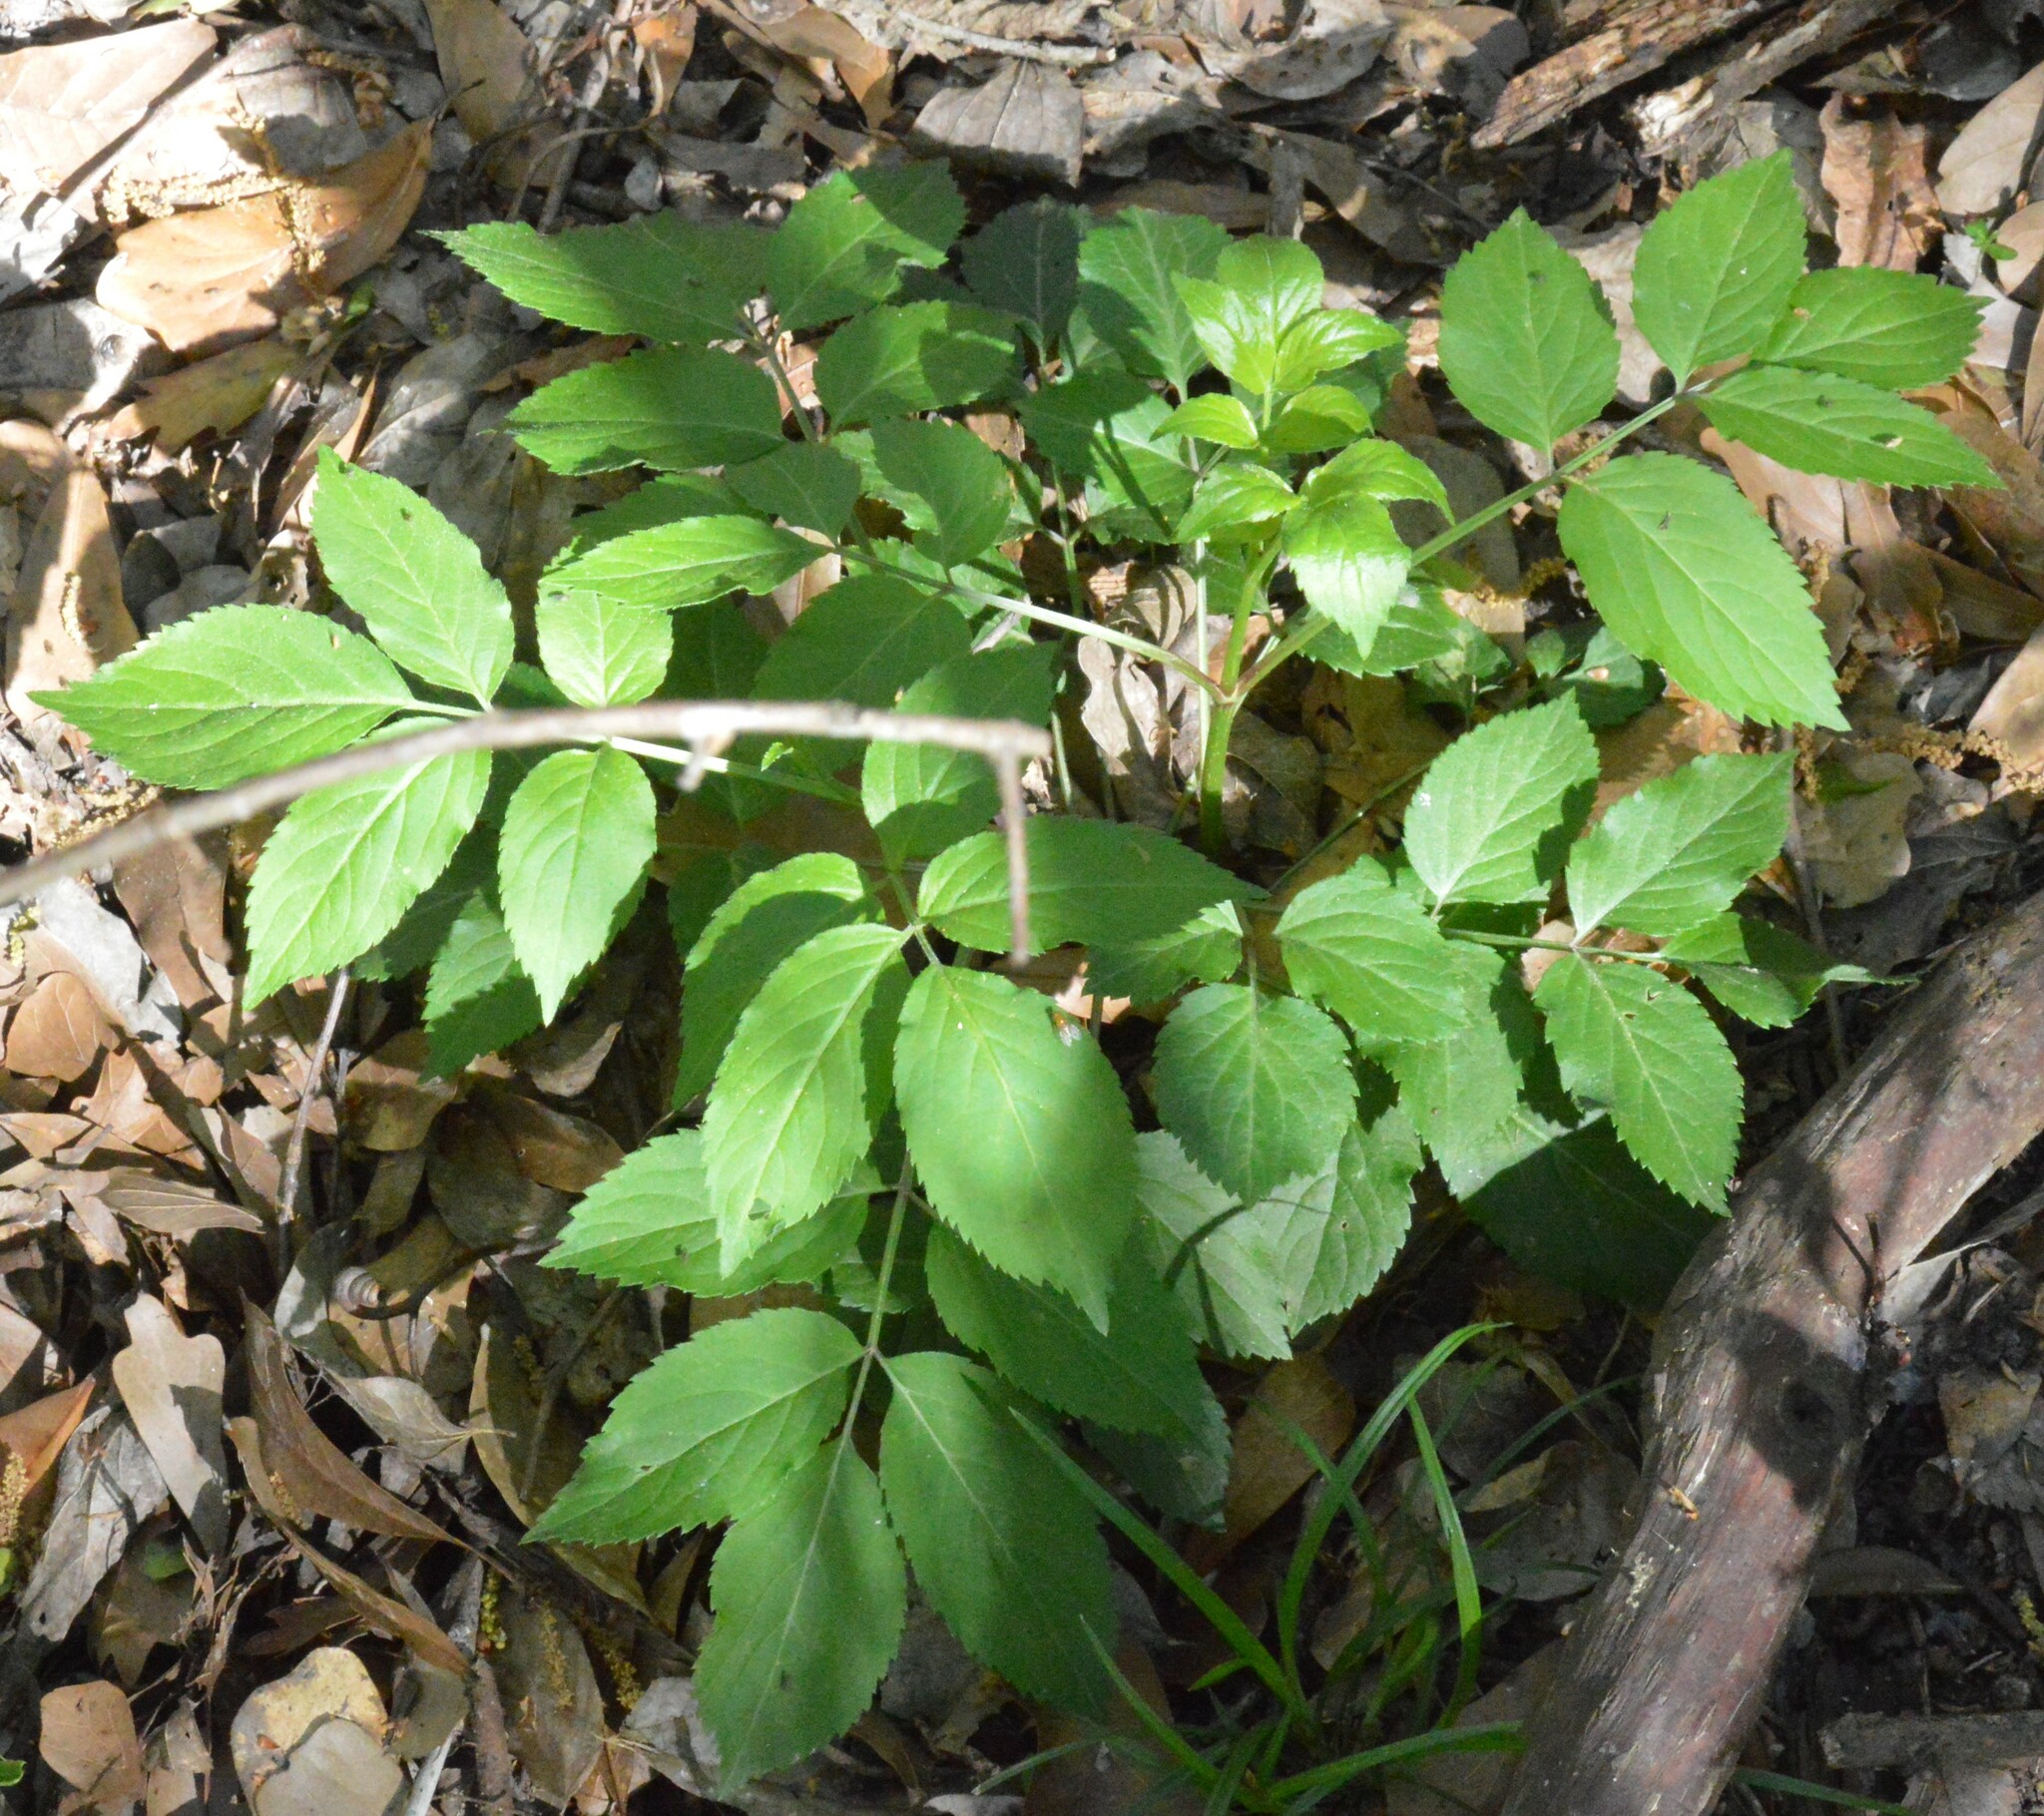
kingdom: Plantae
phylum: Tracheophyta
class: Magnoliopsida
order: Dipsacales
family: Viburnaceae
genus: Sambucus
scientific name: Sambucus canadensis
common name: American elder
